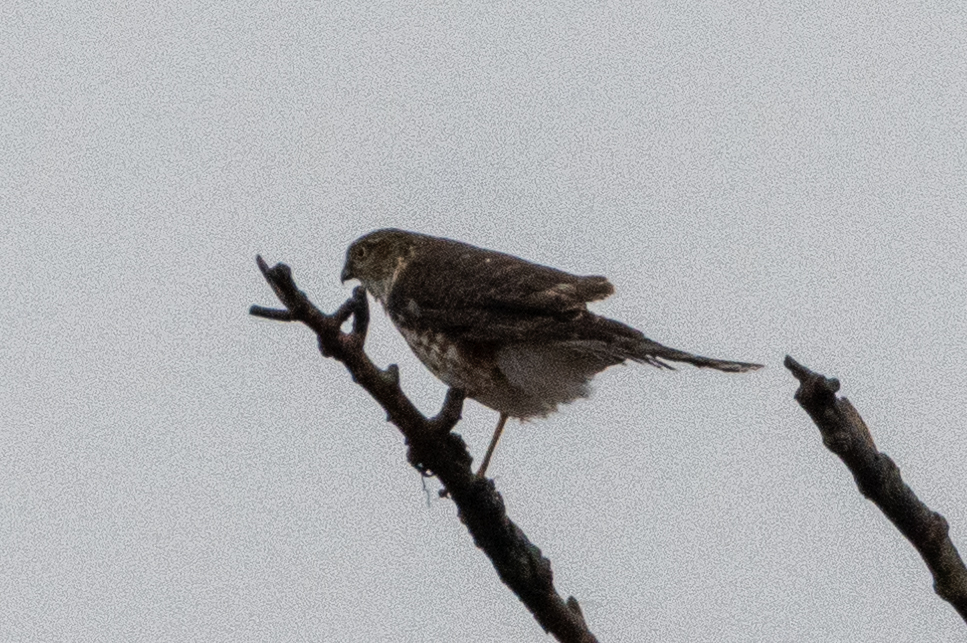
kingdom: Animalia
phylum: Chordata
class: Aves
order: Accipitriformes
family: Accipitridae
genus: Accipiter
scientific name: Accipiter striatus
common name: Sharp-shinned hawk
